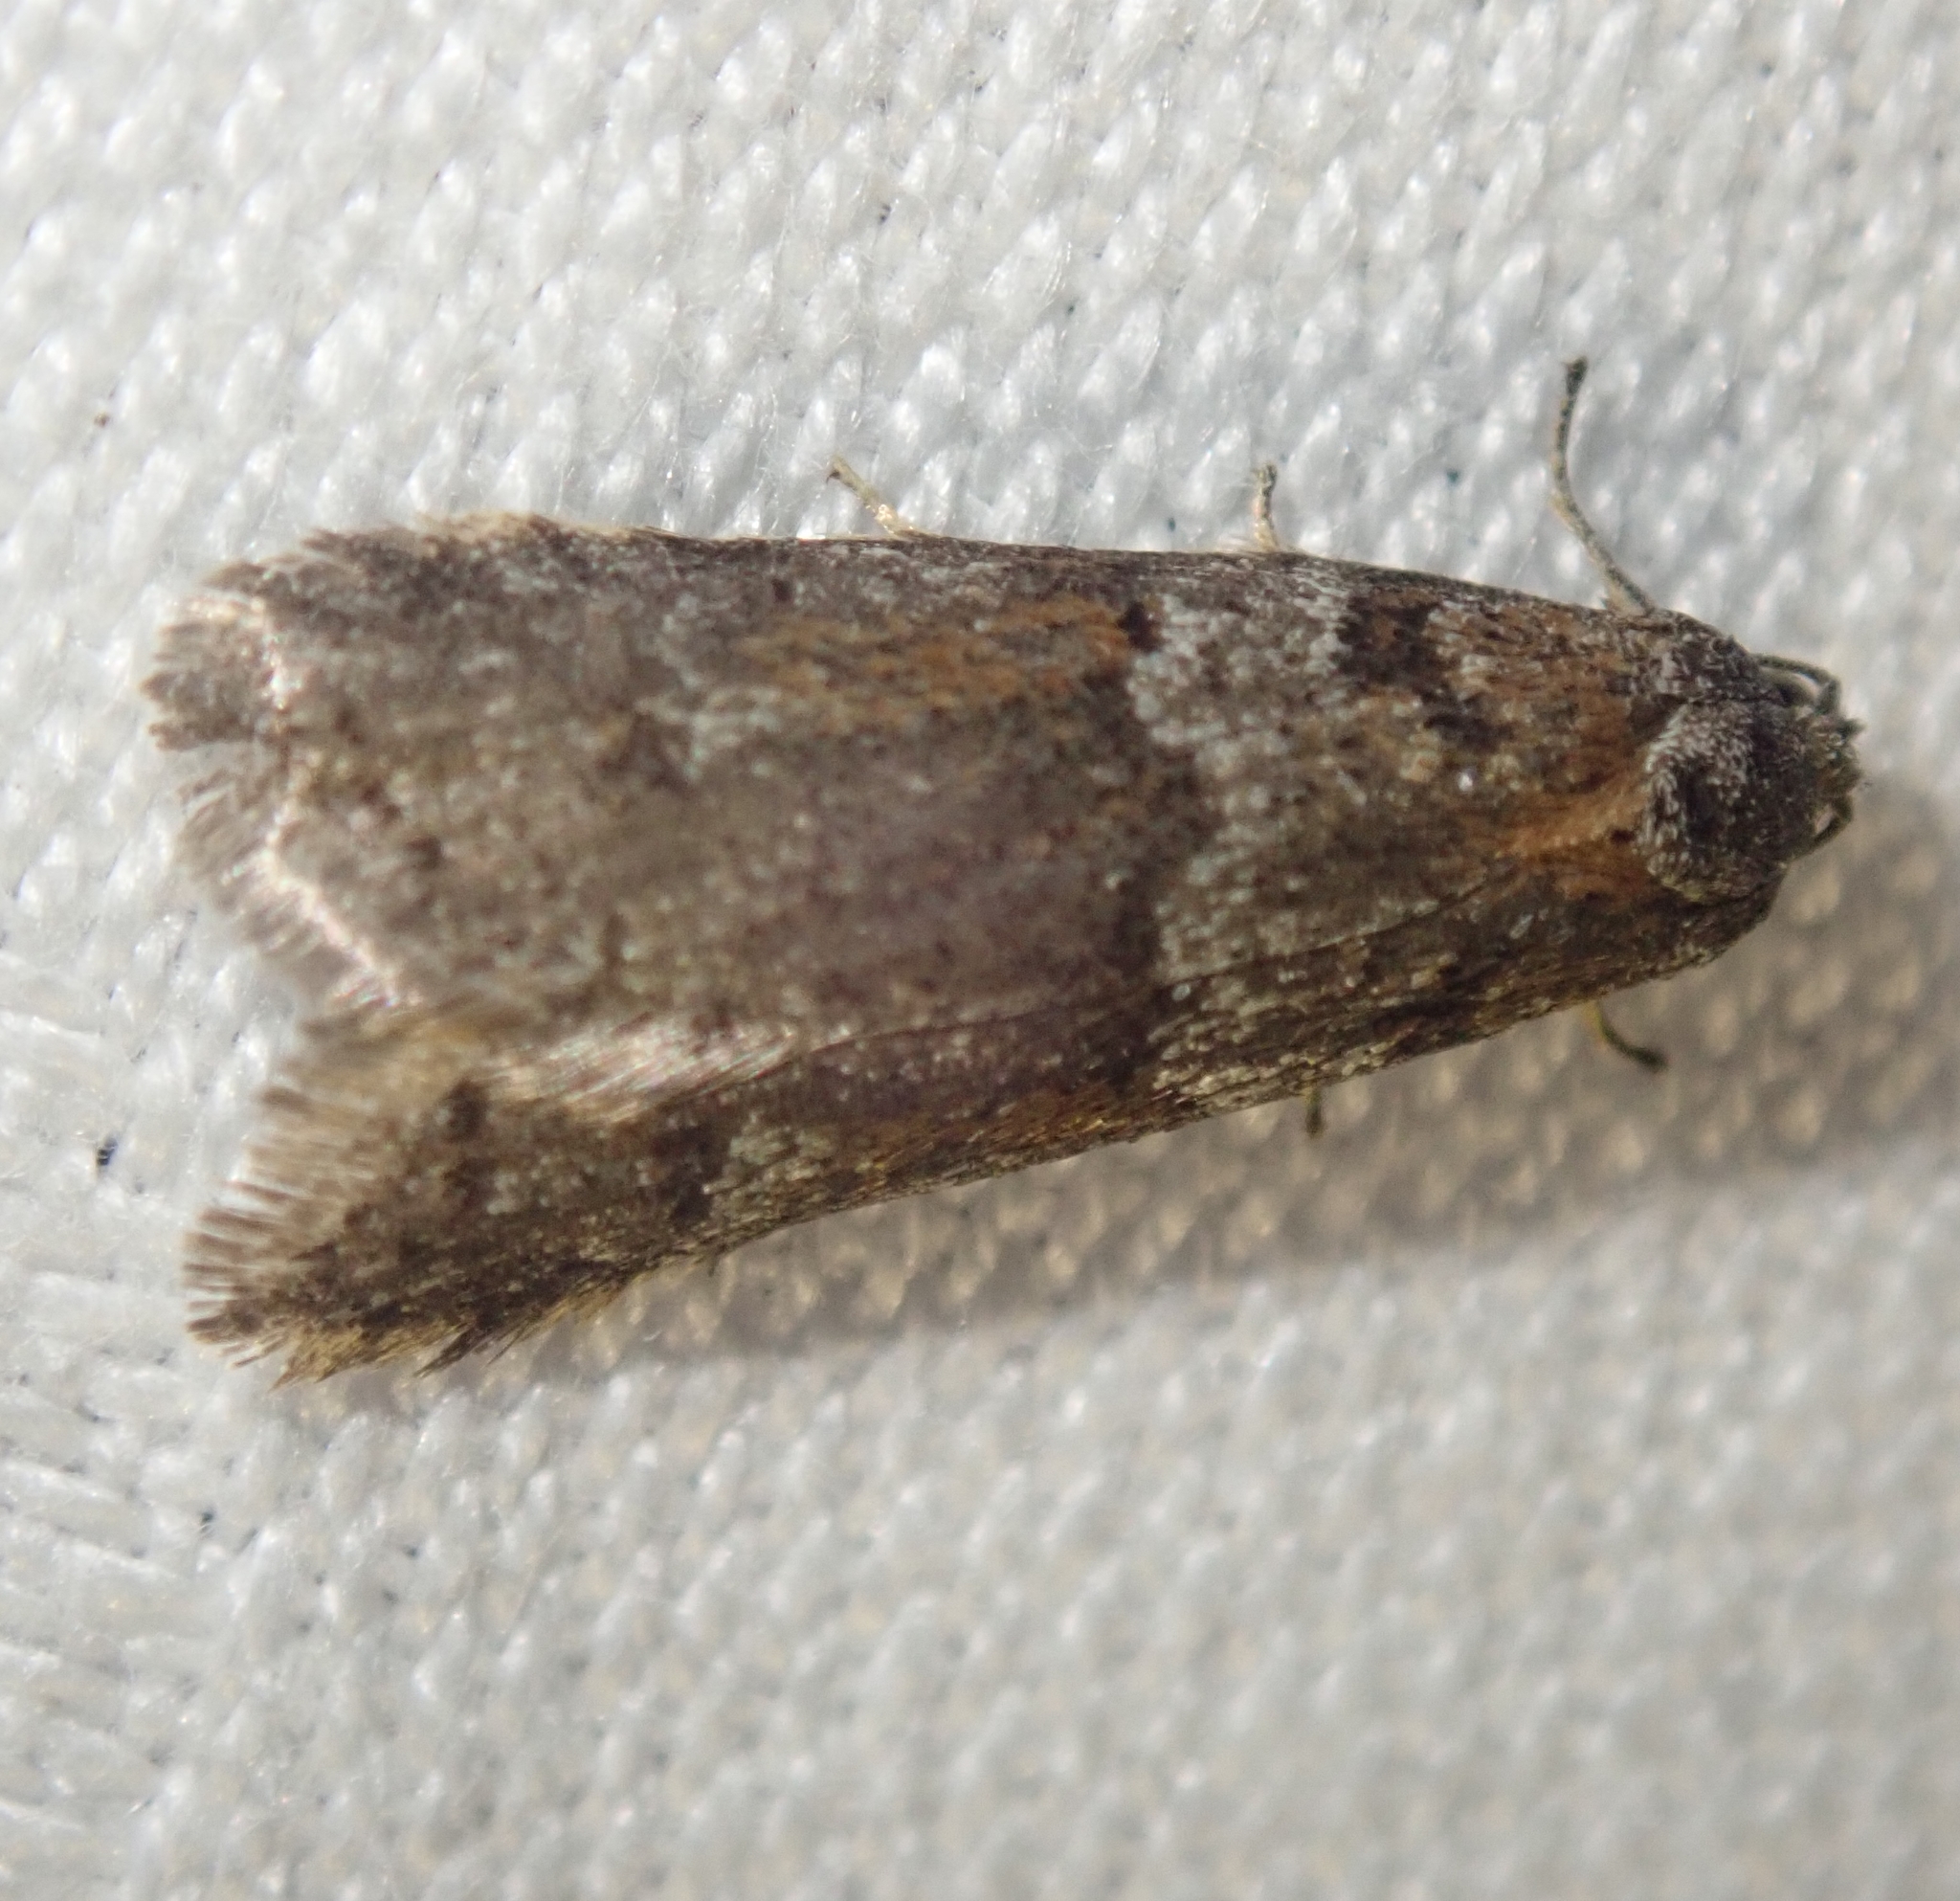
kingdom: Animalia
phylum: Arthropoda
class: Insecta
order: Lepidoptera
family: Tortricidae
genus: Tortricodes
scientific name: Tortricodes alternella
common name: Winter shade
